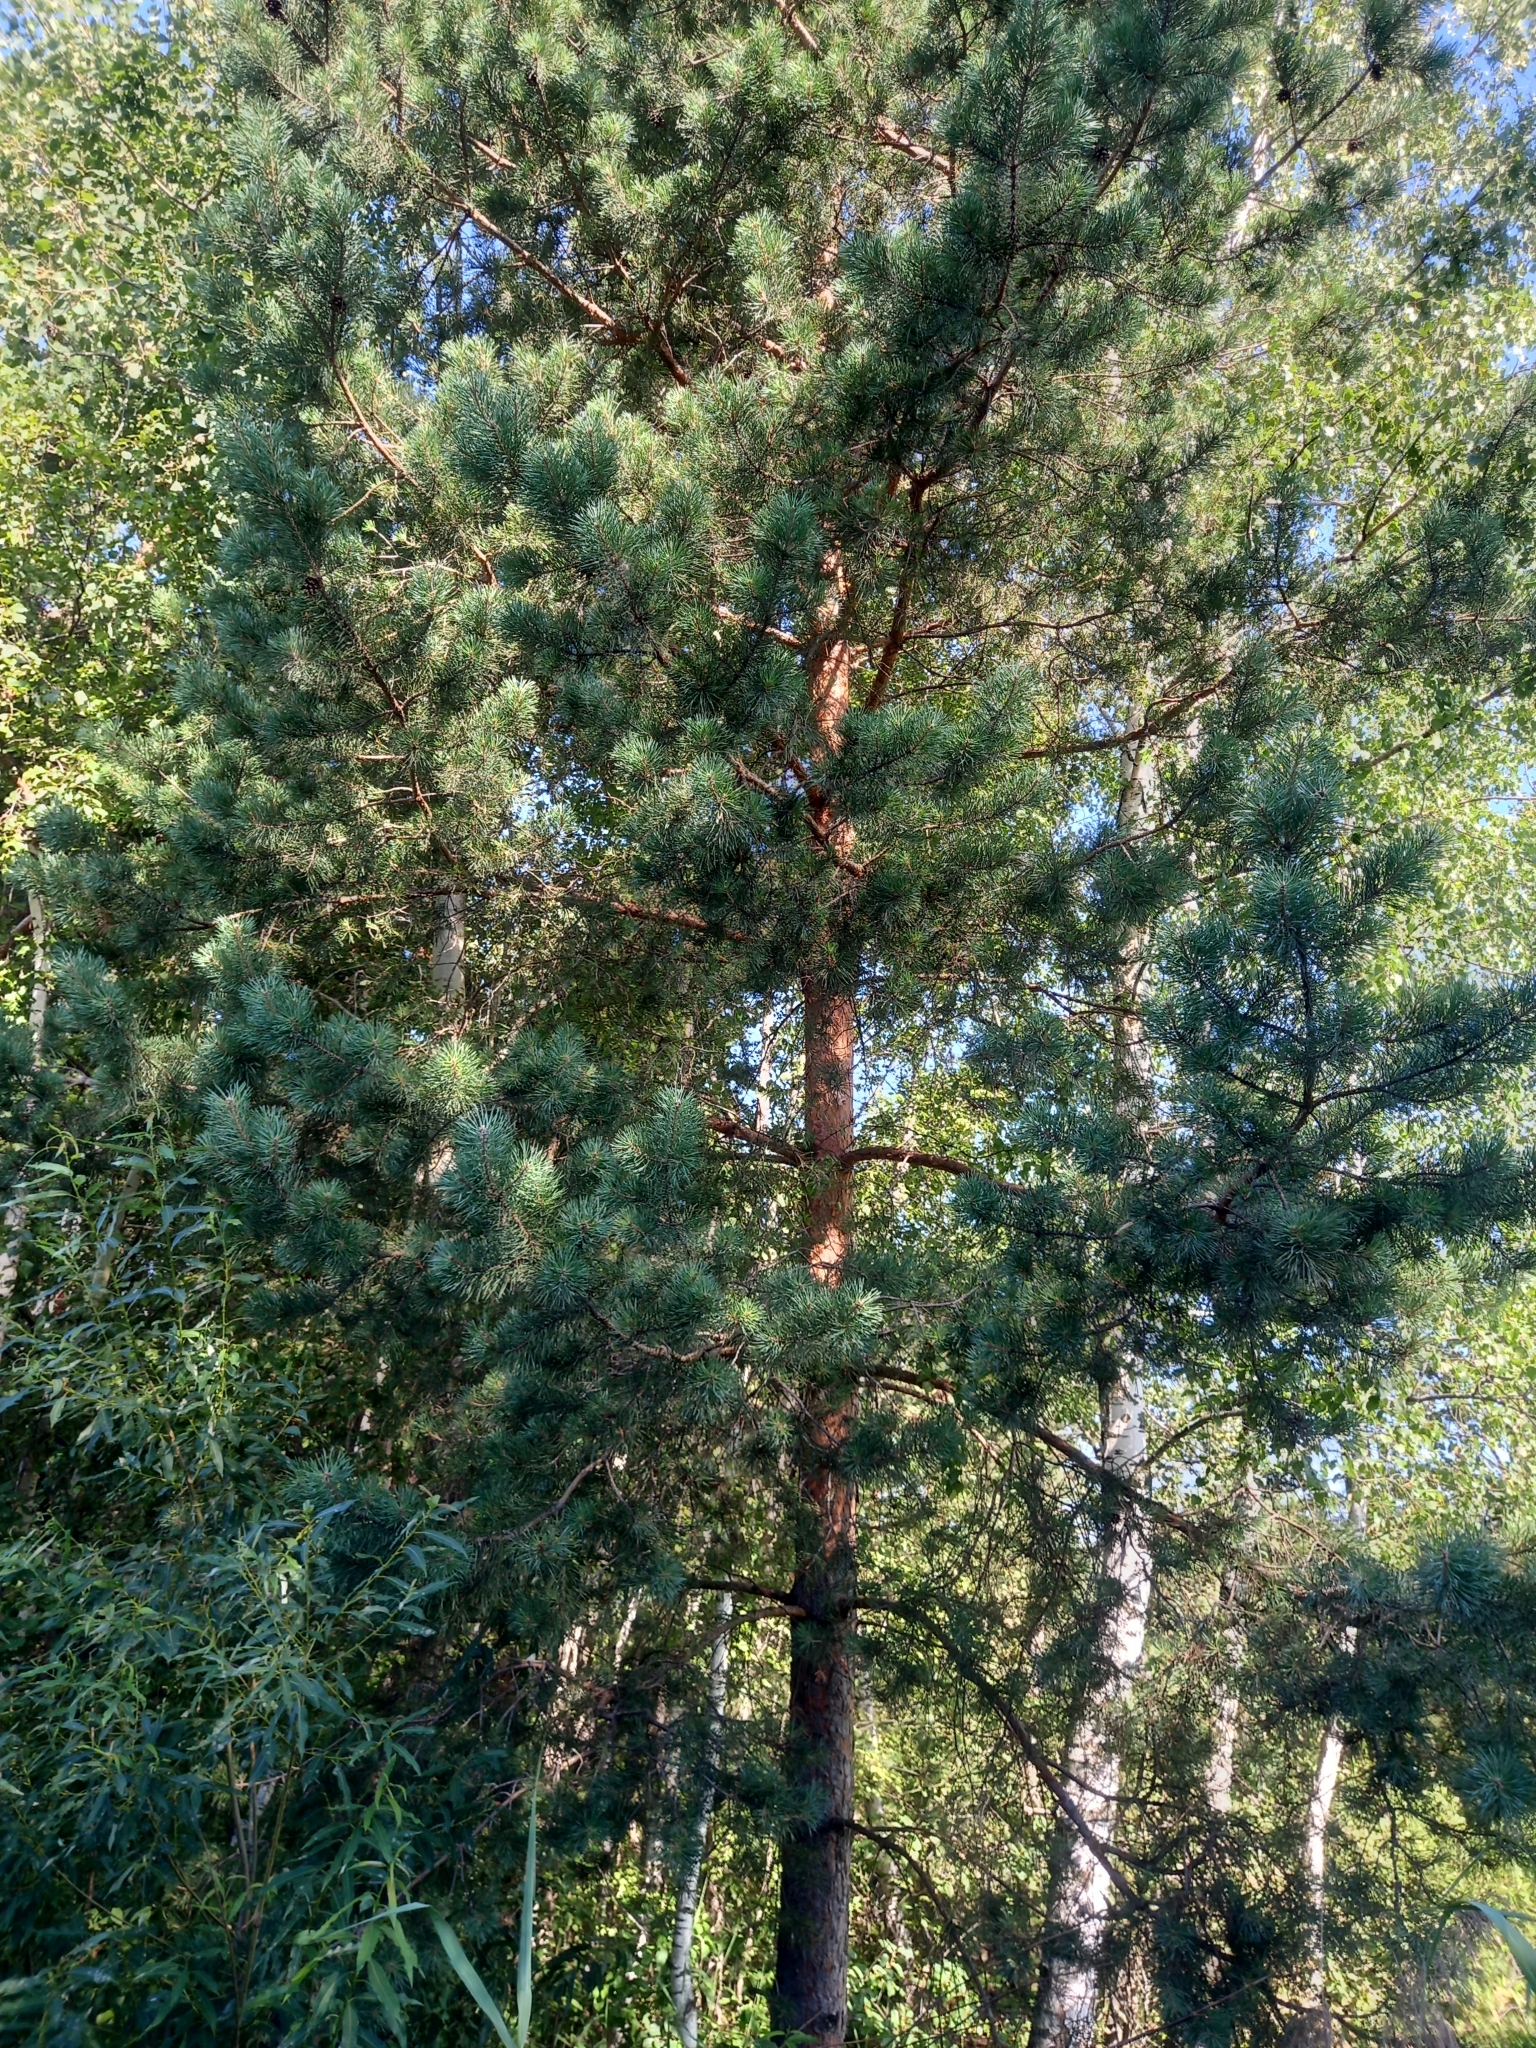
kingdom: Plantae
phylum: Tracheophyta
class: Pinopsida
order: Pinales
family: Pinaceae
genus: Pinus
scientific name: Pinus sylvestris
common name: Scots pine
